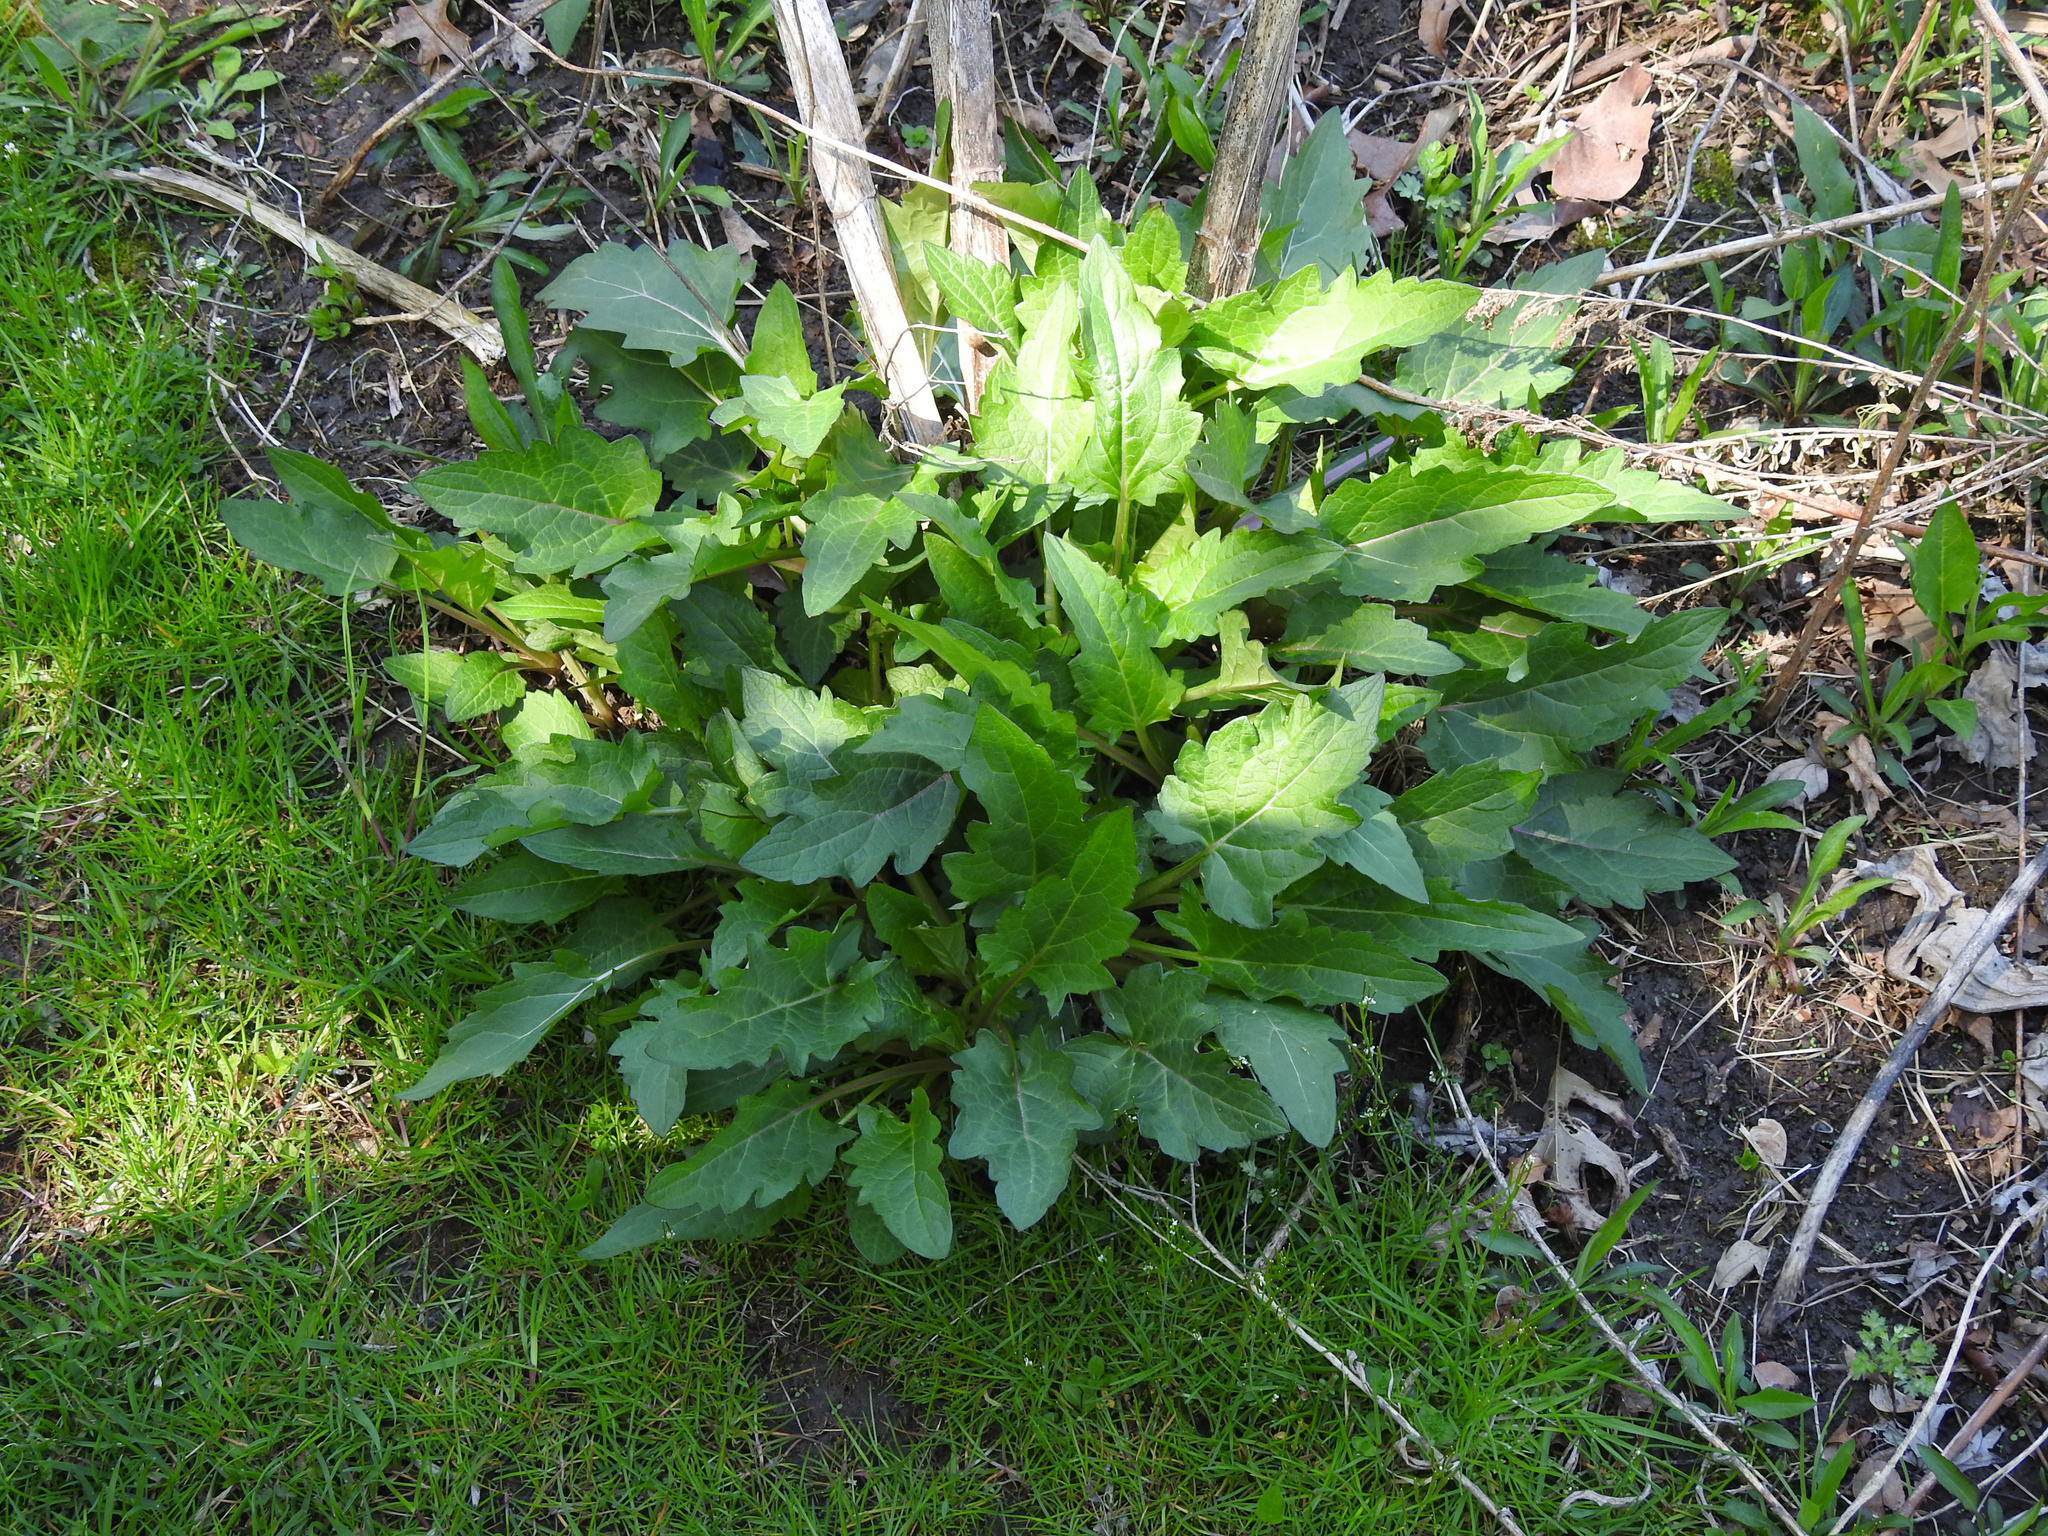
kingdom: Plantae
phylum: Tracheophyta
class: Magnoliopsida
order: Asterales
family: Asteraceae
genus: Silphium
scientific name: Silphium perfoliatum
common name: Cup-plant
